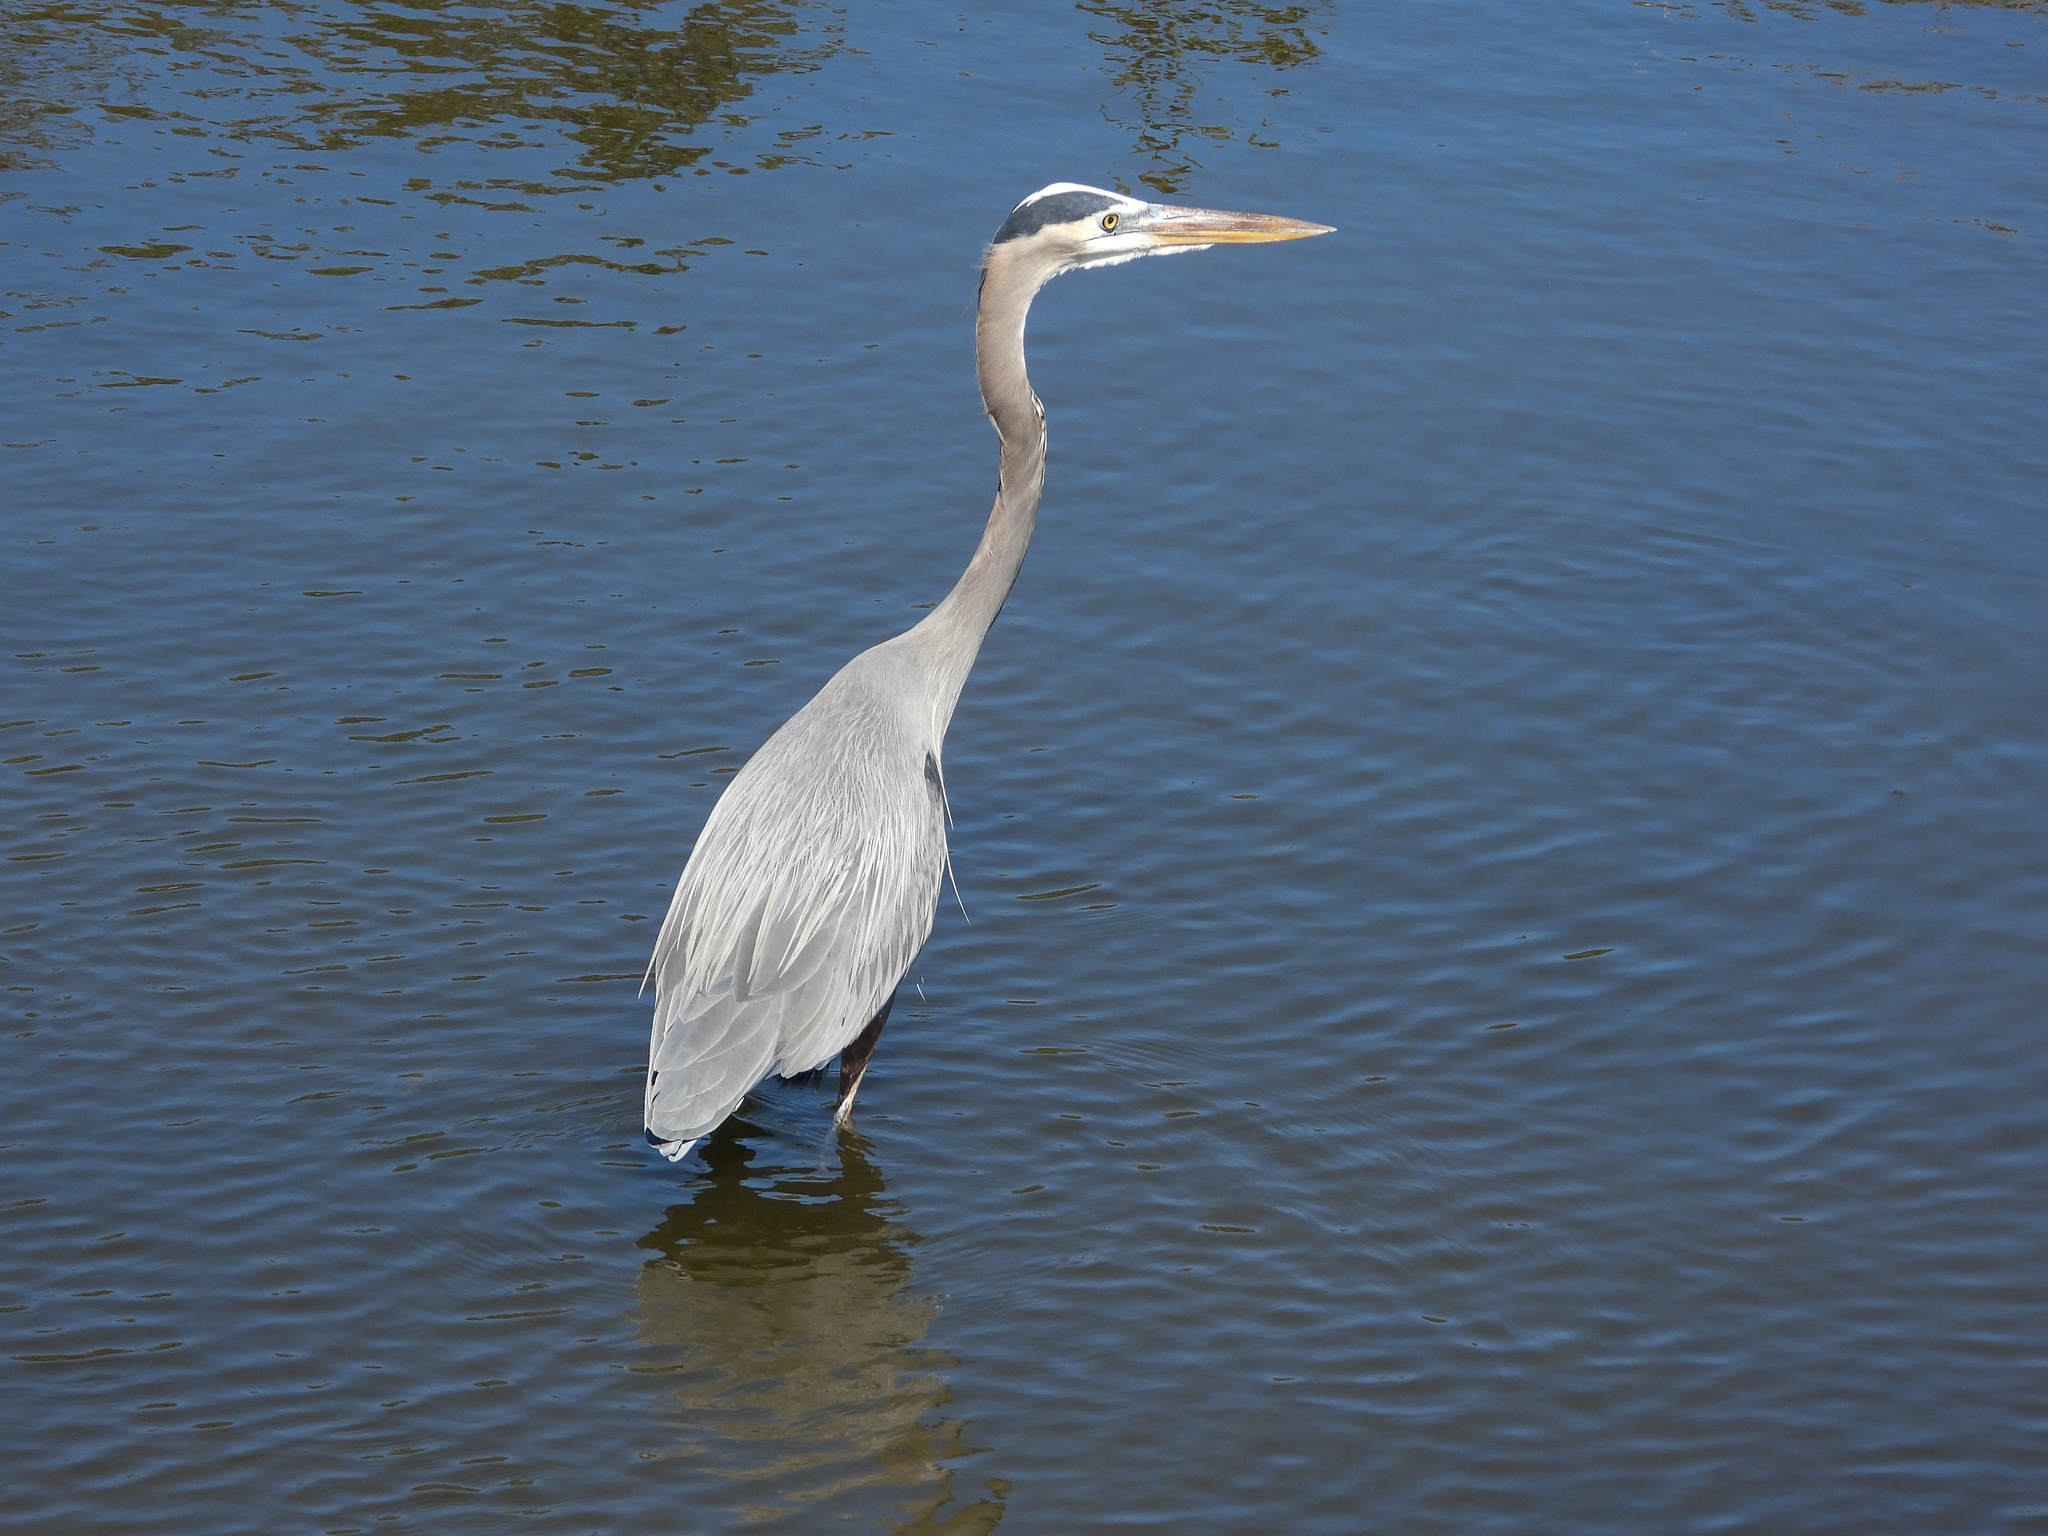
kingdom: Animalia
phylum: Chordata
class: Aves
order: Pelecaniformes
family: Ardeidae
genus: Ardea
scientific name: Ardea herodias
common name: Great blue heron
